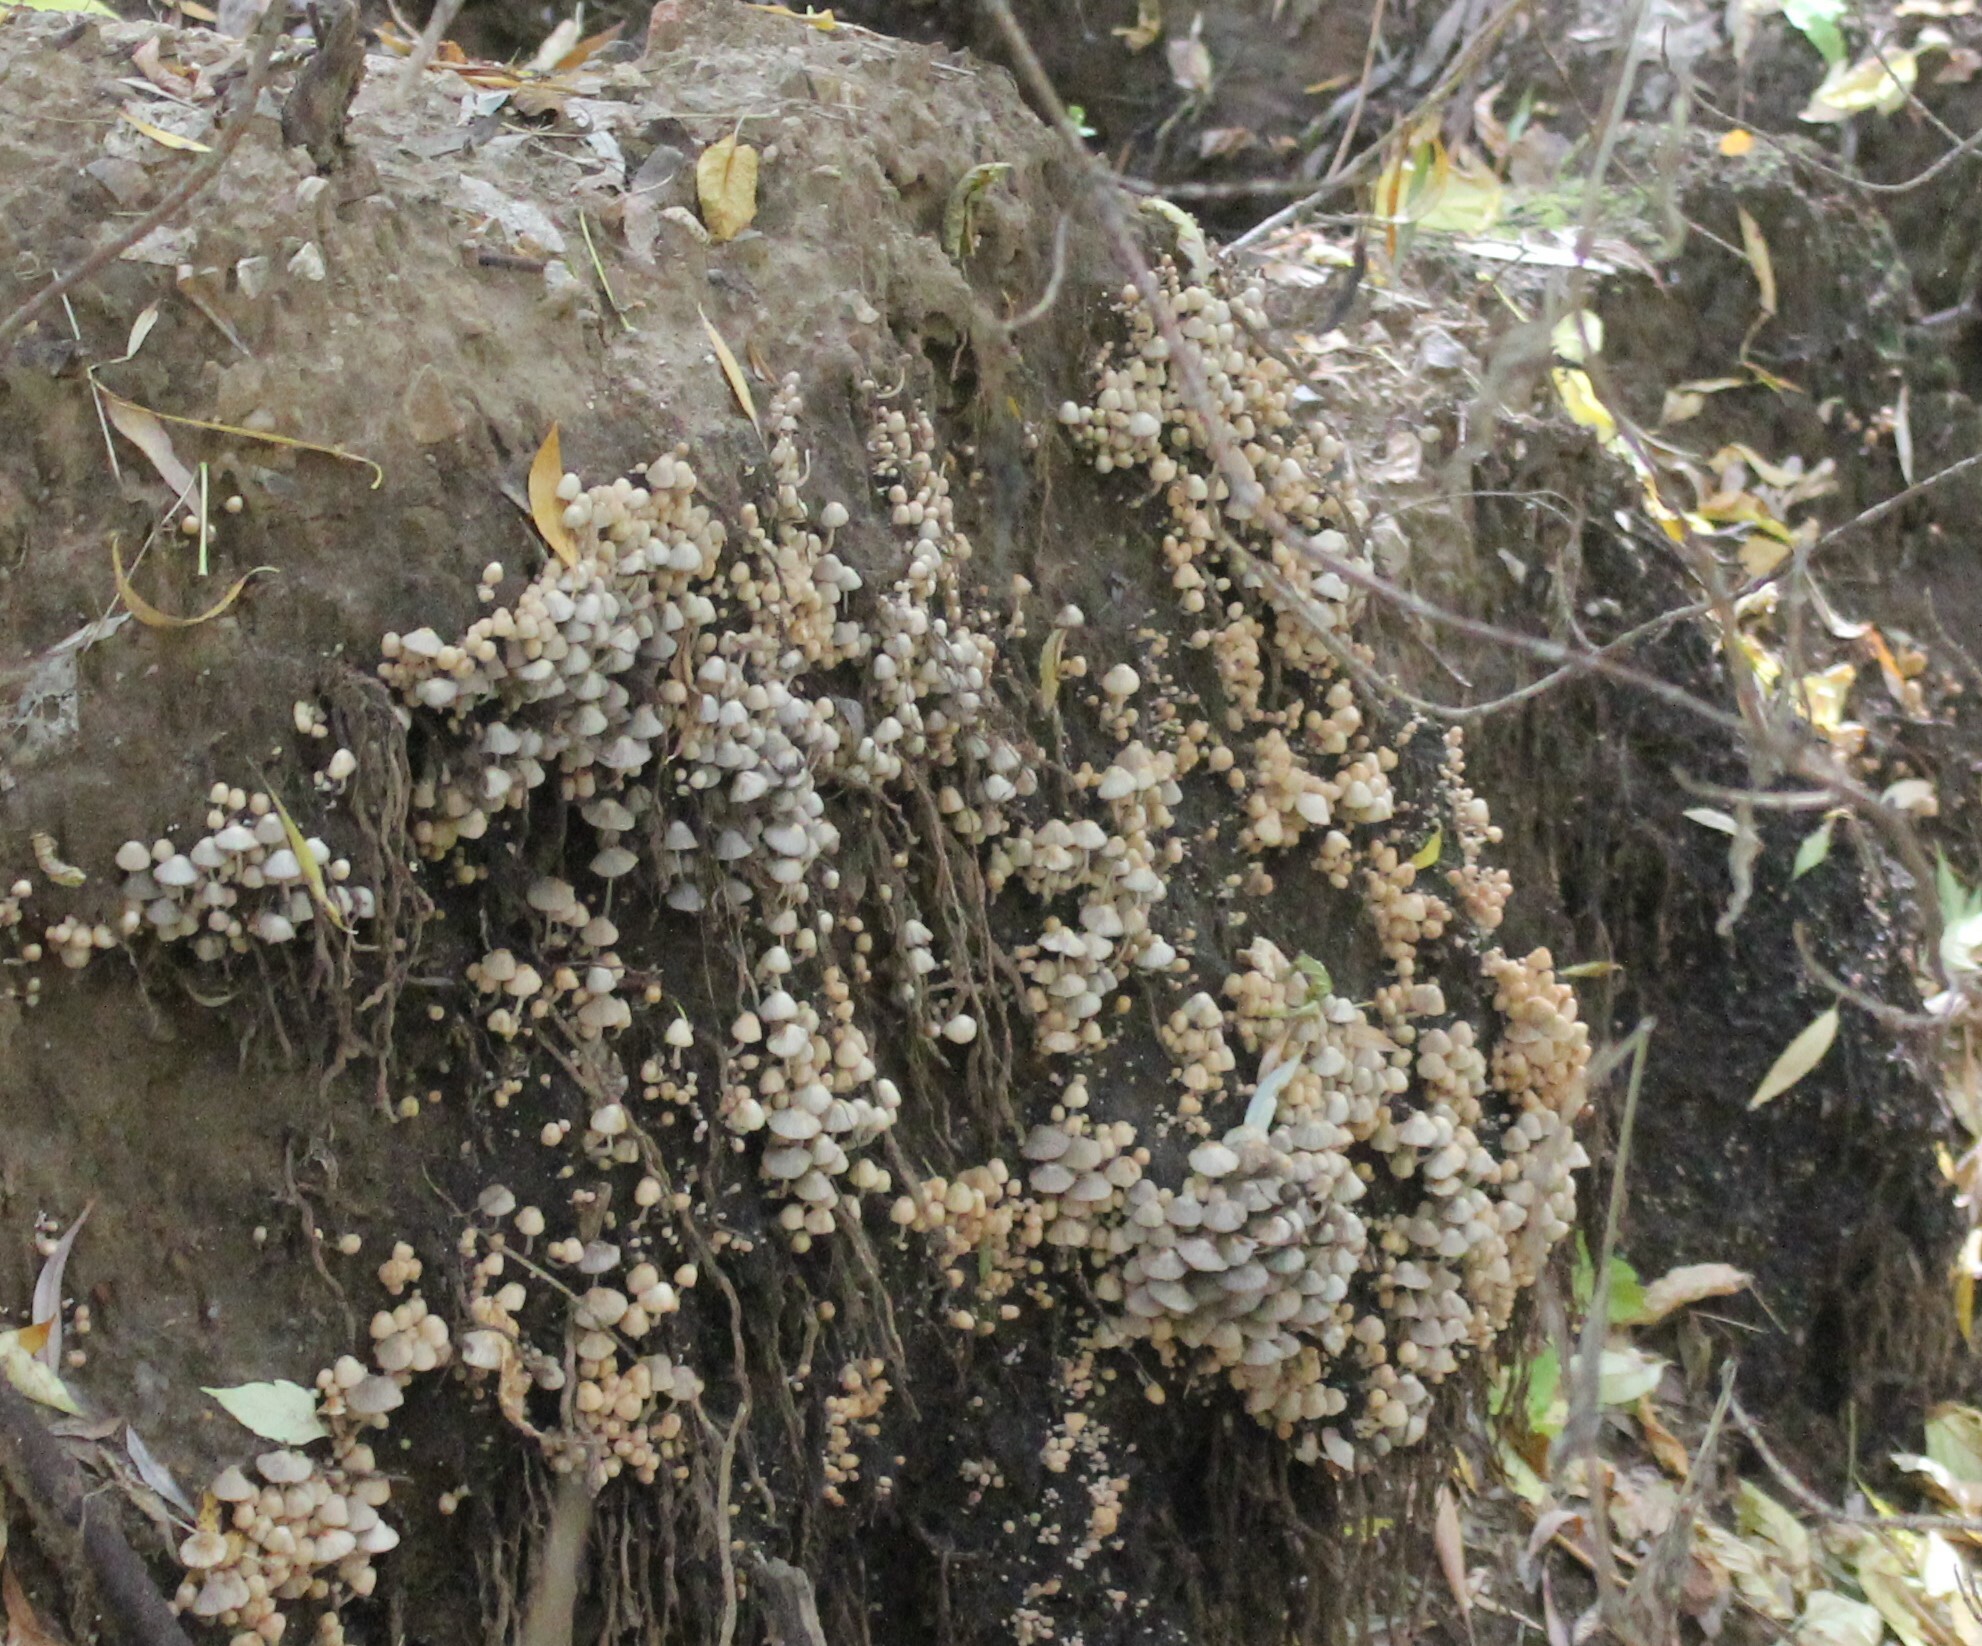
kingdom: Fungi
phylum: Basidiomycota
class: Agaricomycetes
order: Agaricales
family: Psathyrellaceae
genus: Coprinellus
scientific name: Coprinellus disseminatus
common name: Fairies' bonnets
